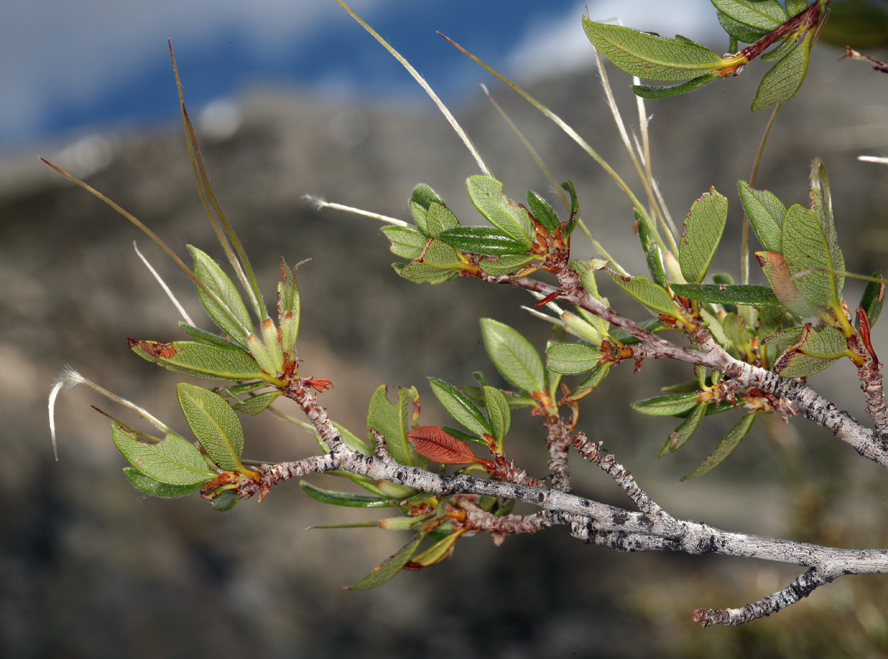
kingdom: Plantae
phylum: Tracheophyta
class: Magnoliopsida
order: Rosales
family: Rosaceae
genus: Cercocarpus
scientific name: Cercocarpus ledifolius
